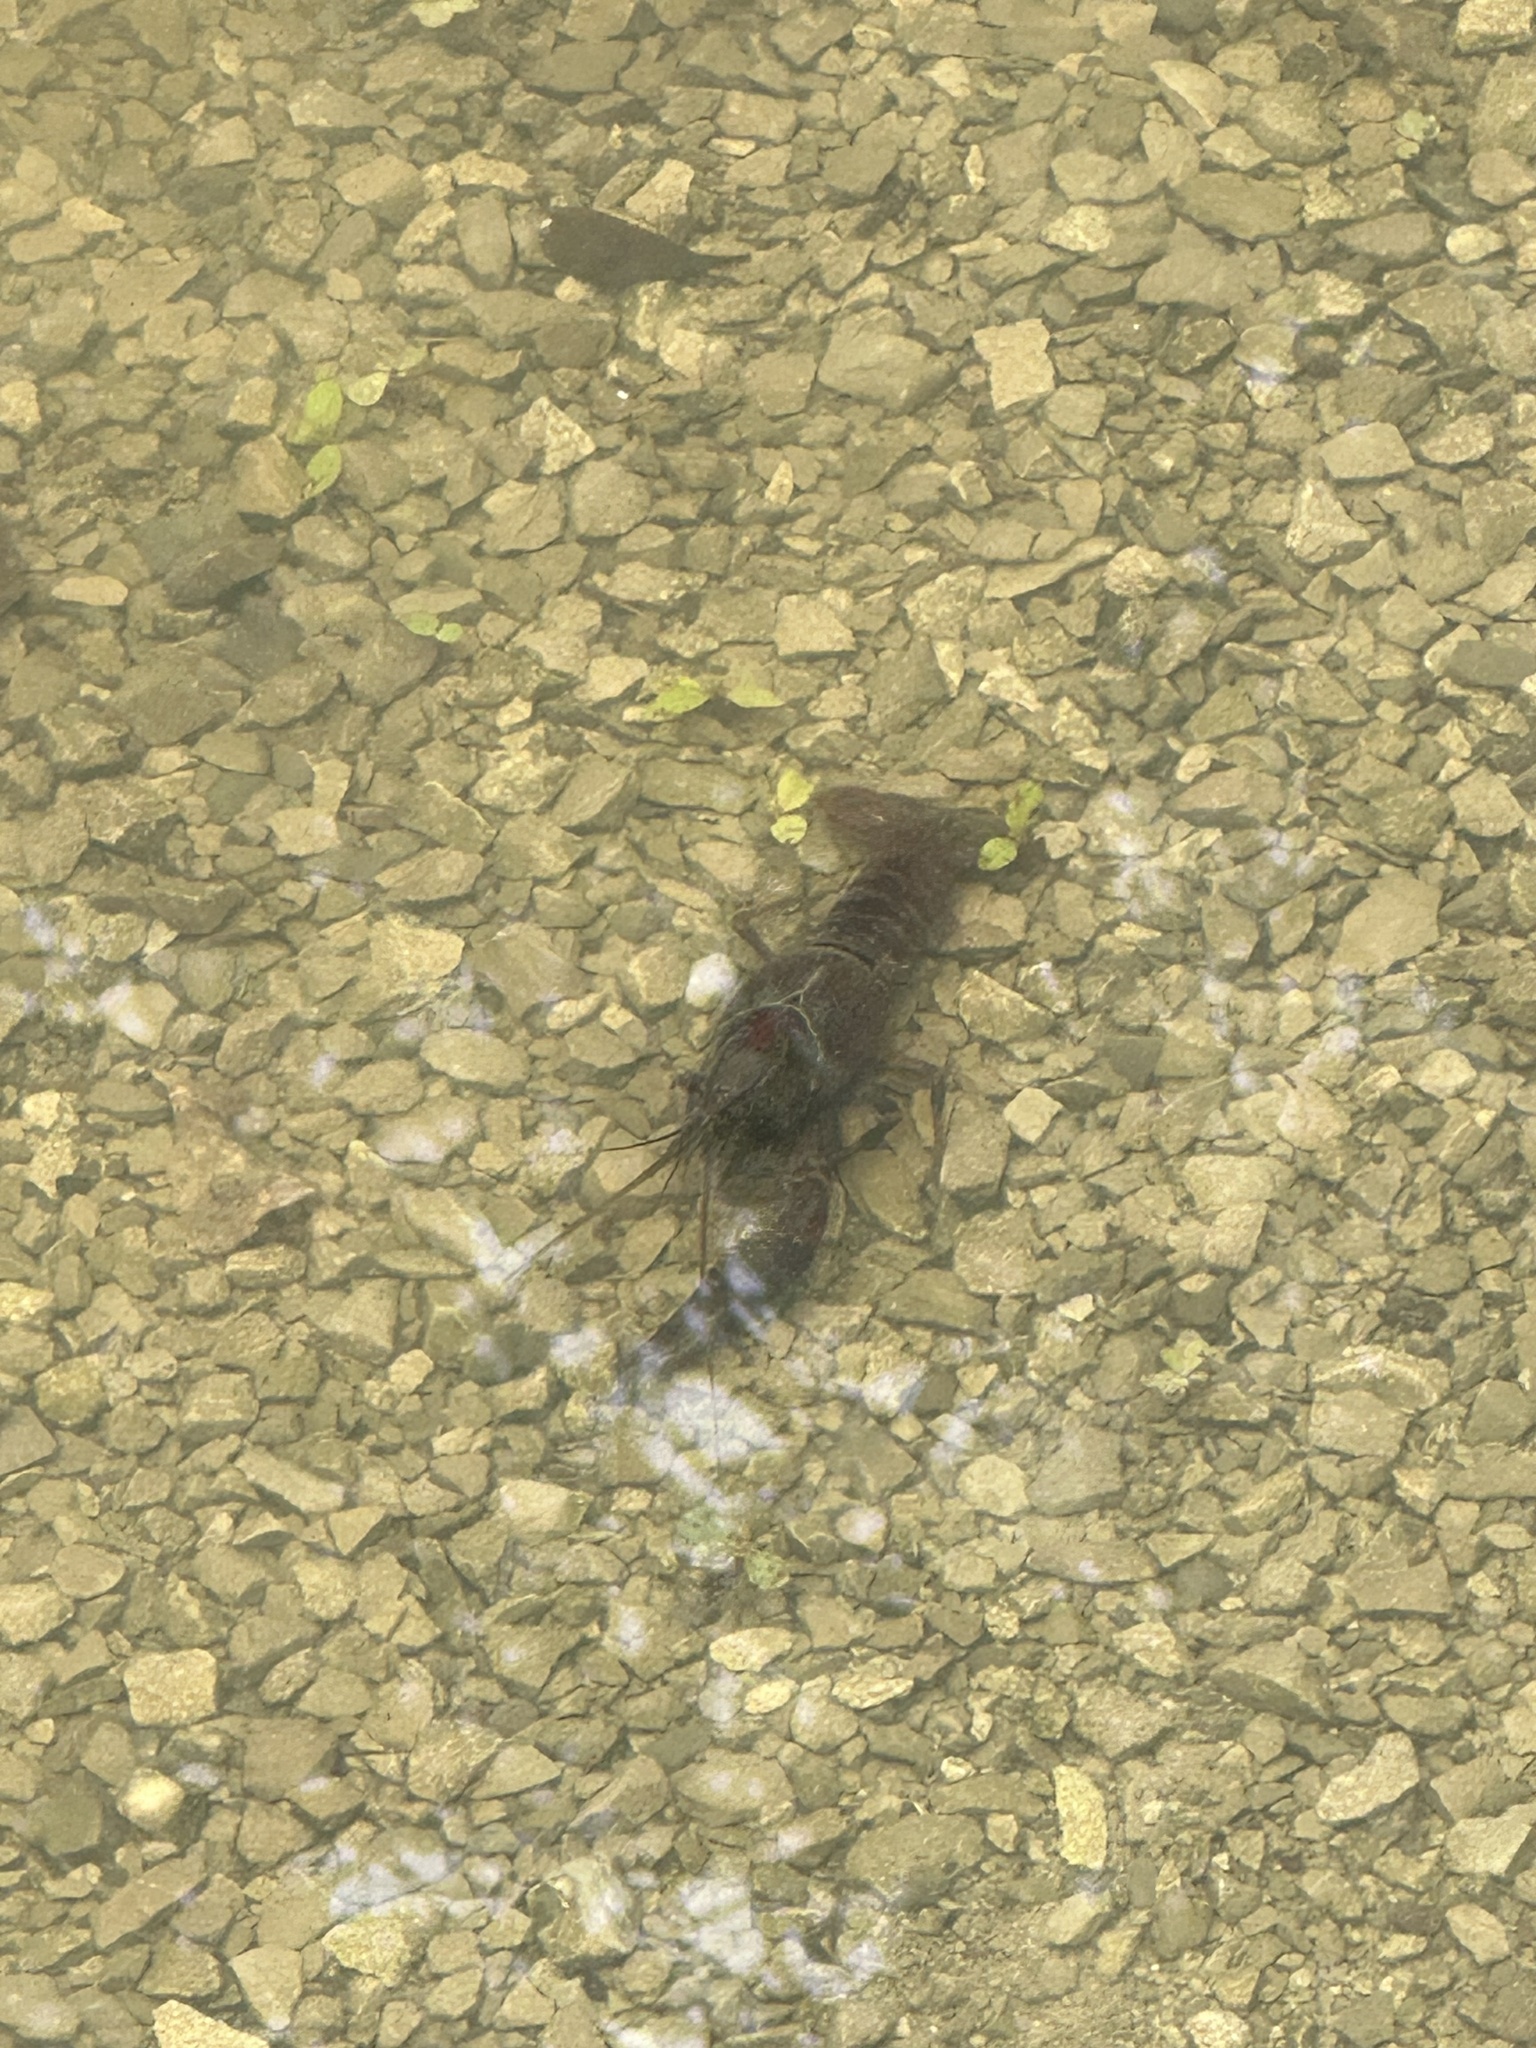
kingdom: Animalia
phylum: Arthropoda
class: Malacostraca
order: Decapoda
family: Cambaridae
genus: Procambarus
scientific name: Procambarus clarkii
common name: Red swamp crayfish
